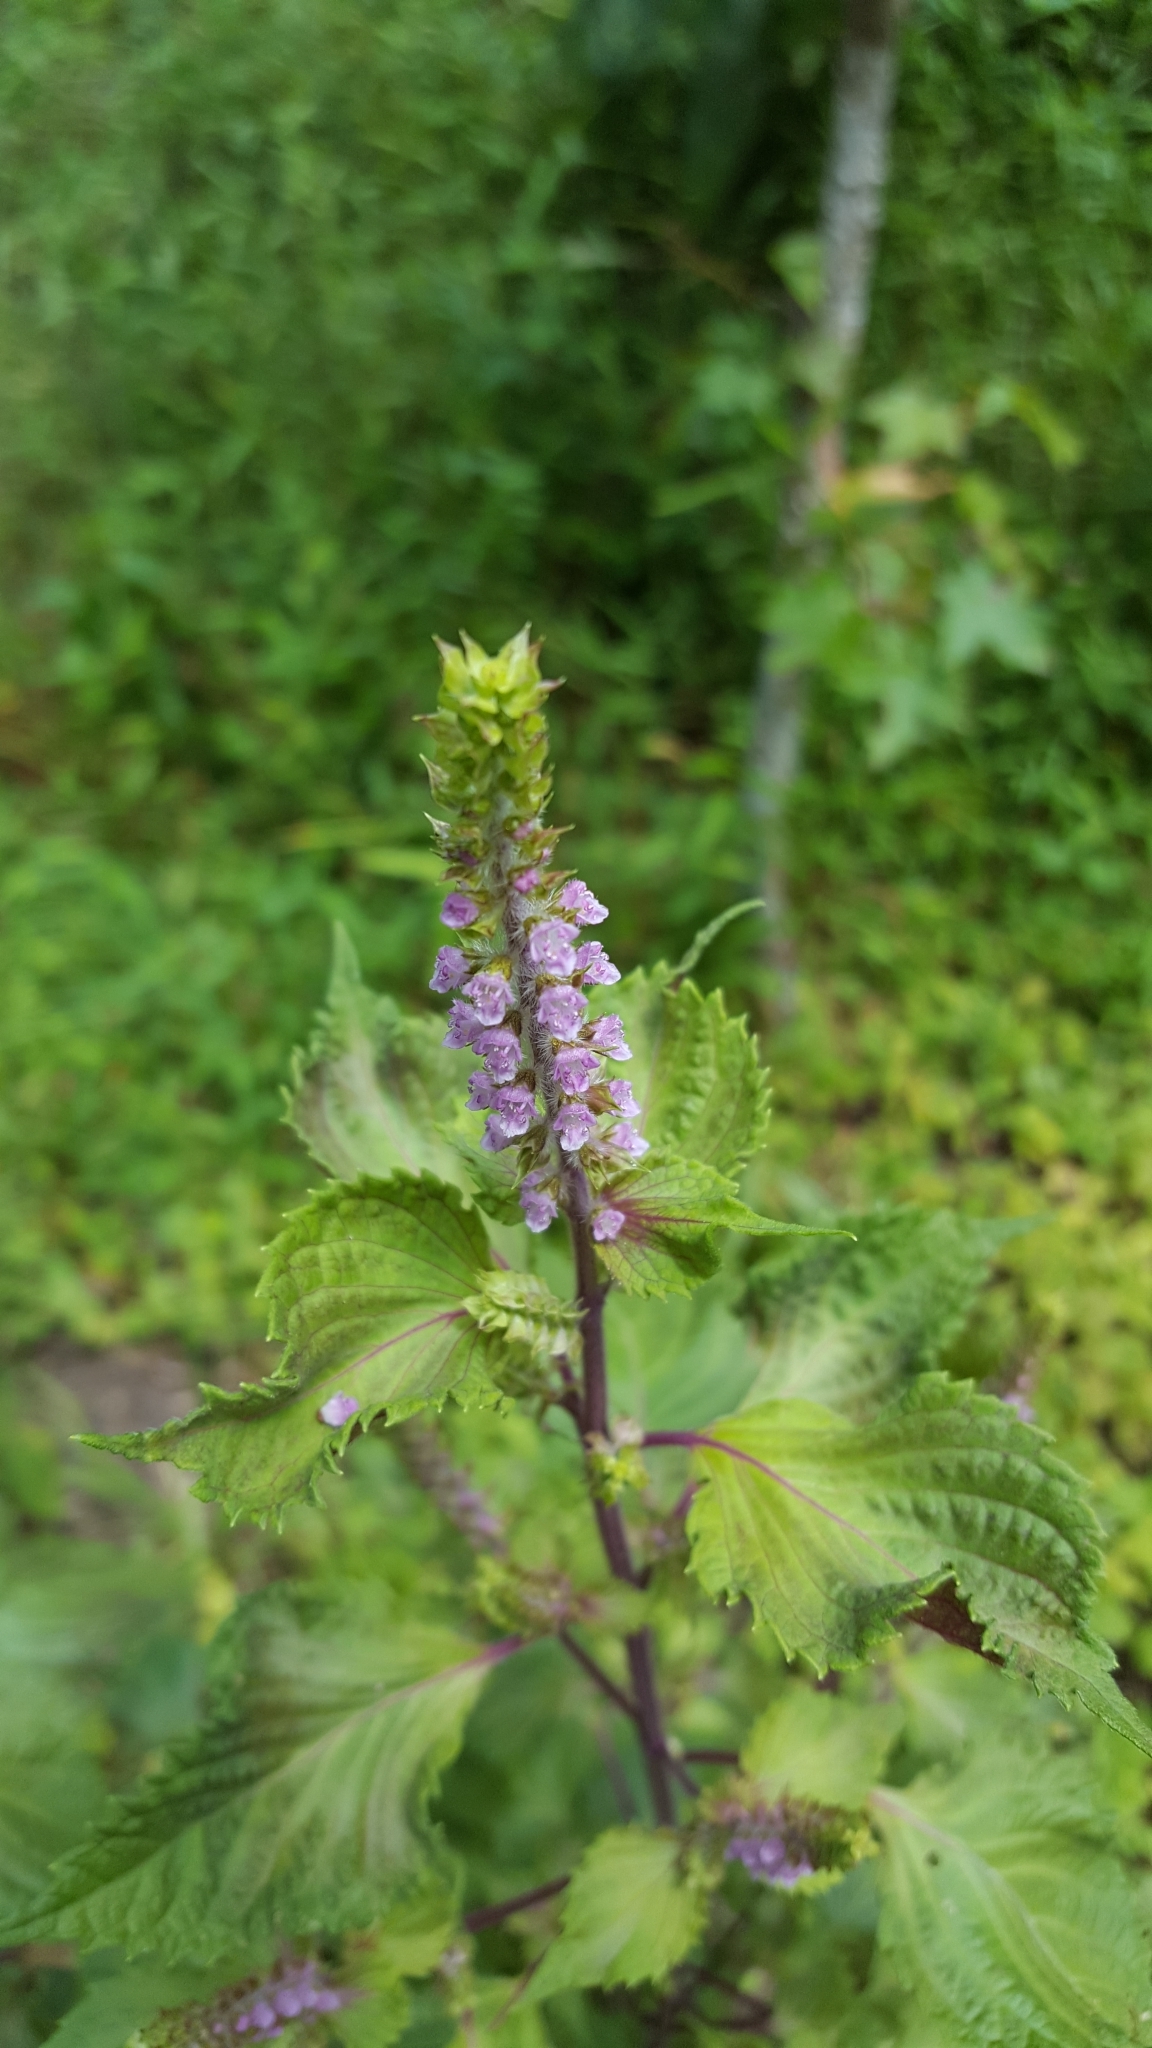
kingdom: Plantae
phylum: Tracheophyta
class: Magnoliopsida
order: Lamiales
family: Lamiaceae
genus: Perilla
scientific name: Perilla frutescens
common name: Perilla
